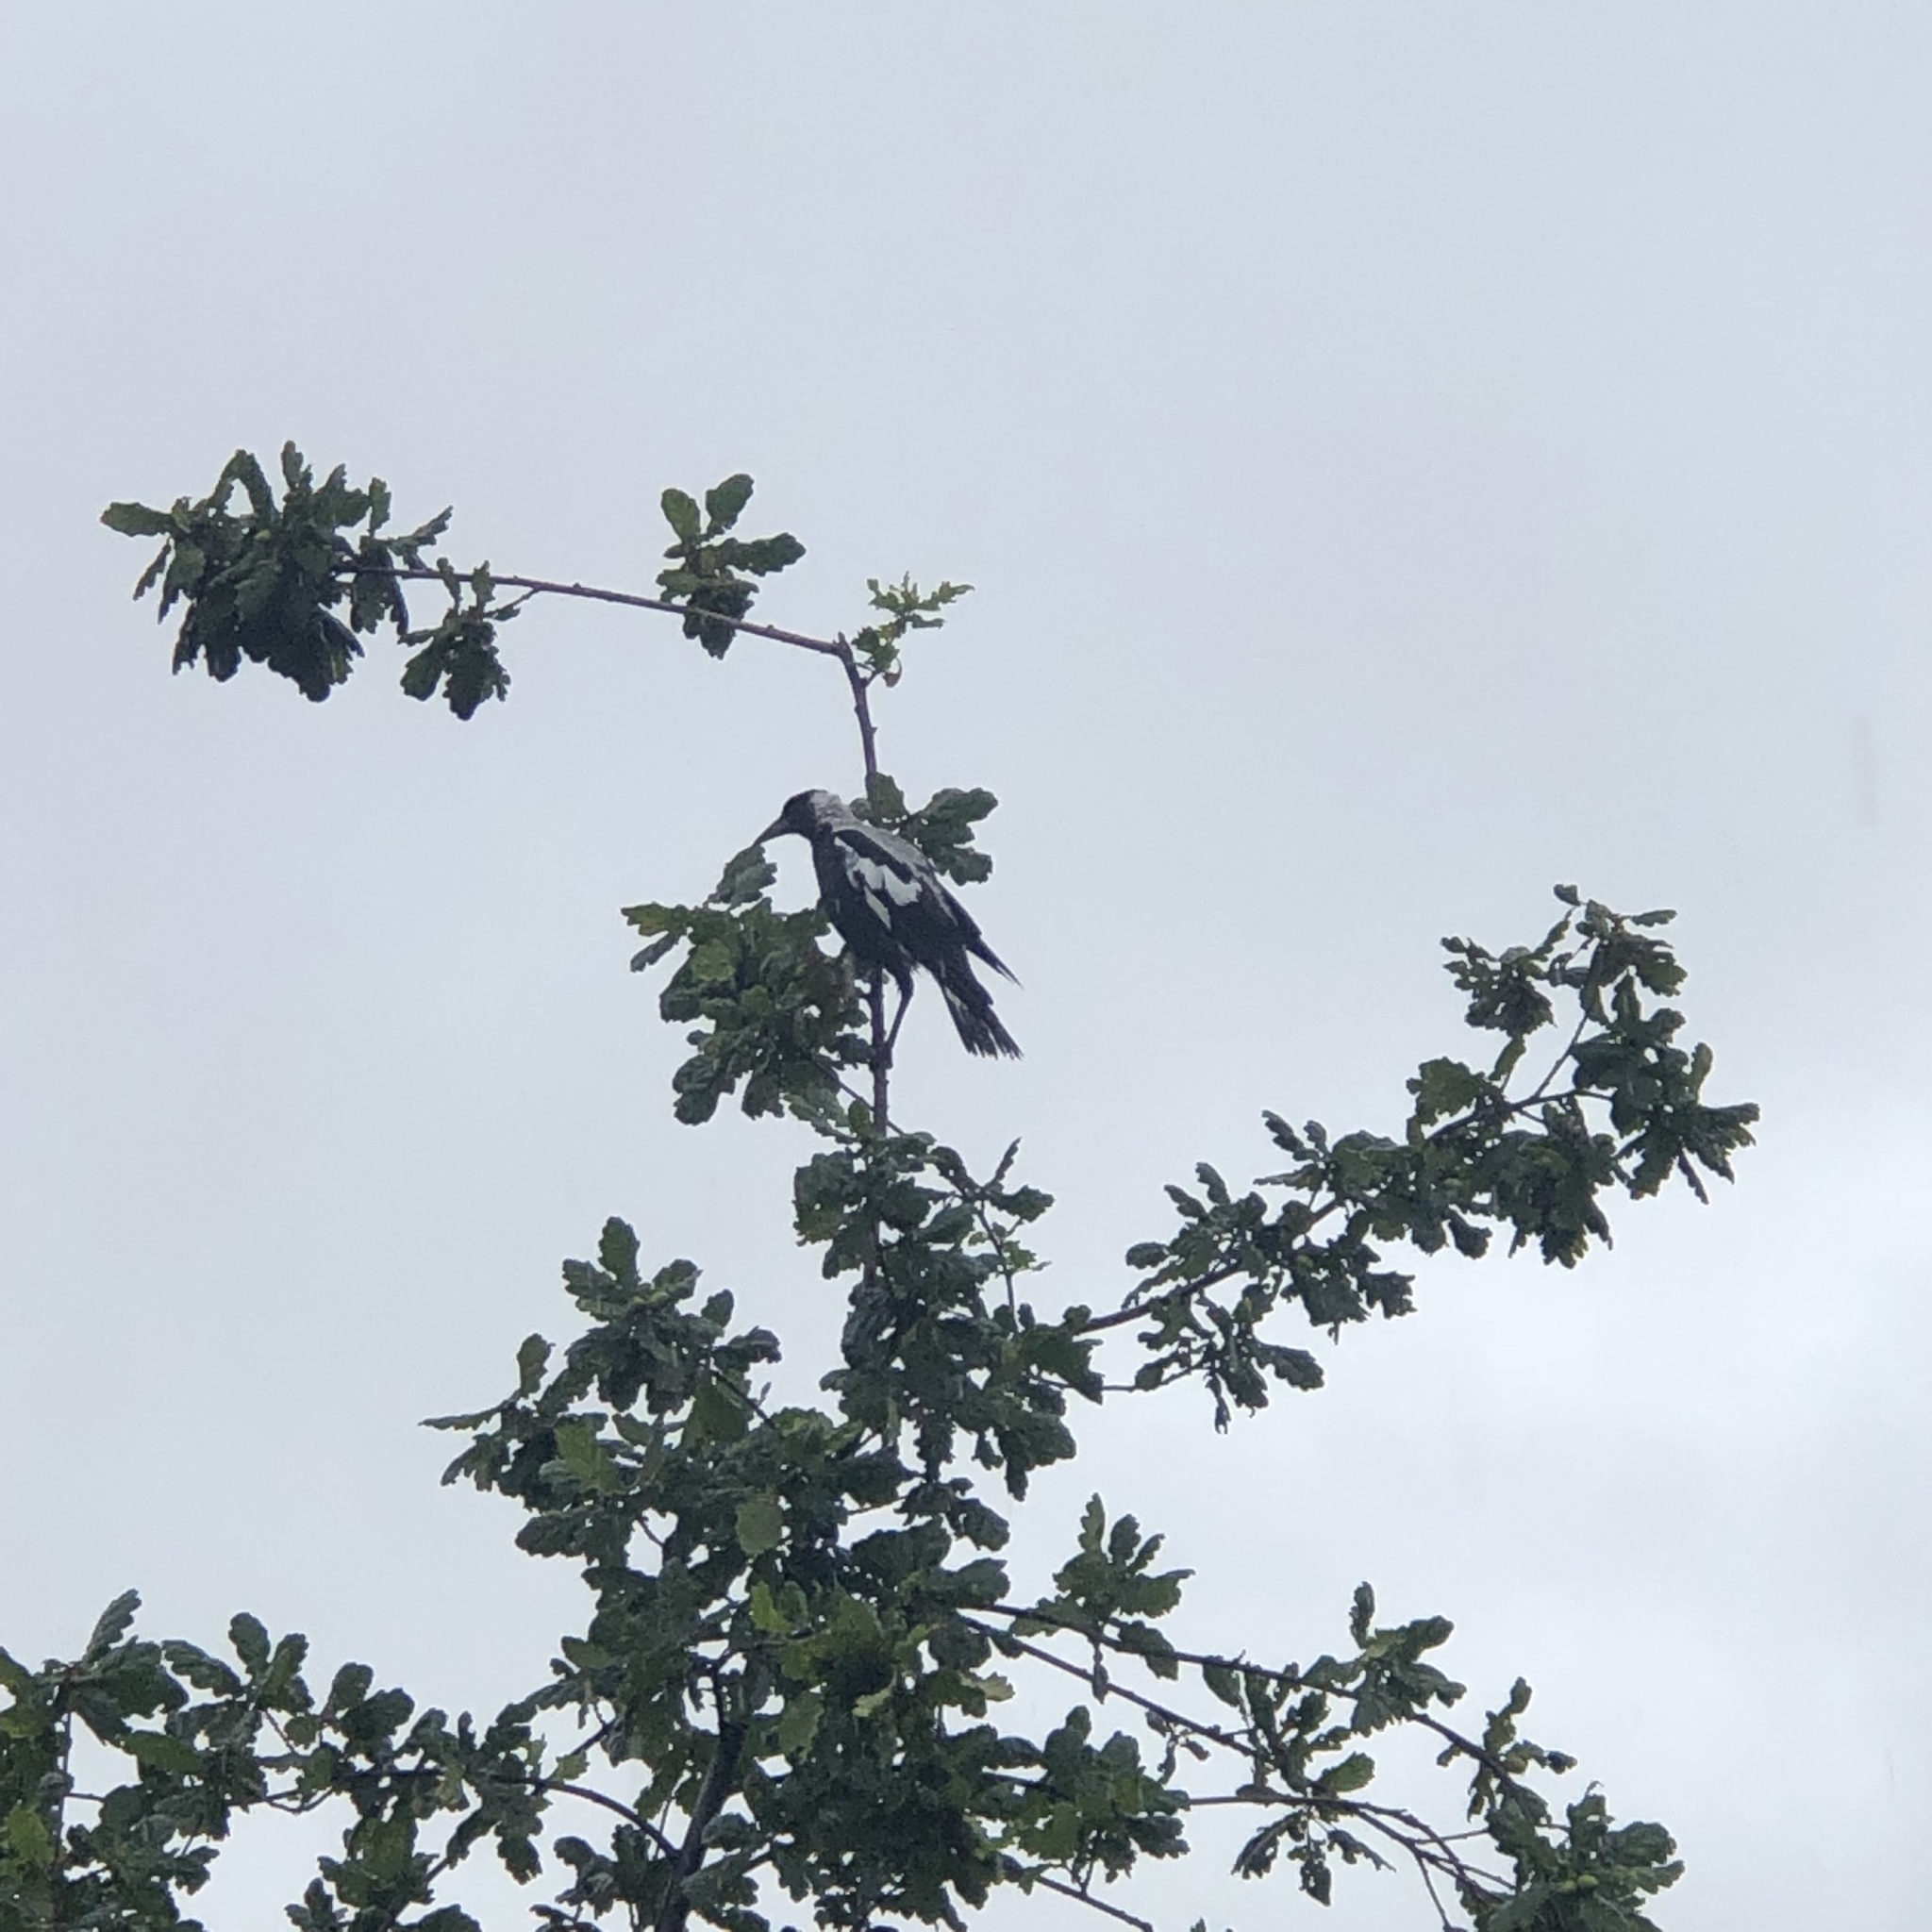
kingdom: Animalia
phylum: Chordata
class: Aves
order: Passeriformes
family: Cracticidae
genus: Gymnorhina
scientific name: Gymnorhina tibicen
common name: Australian magpie
